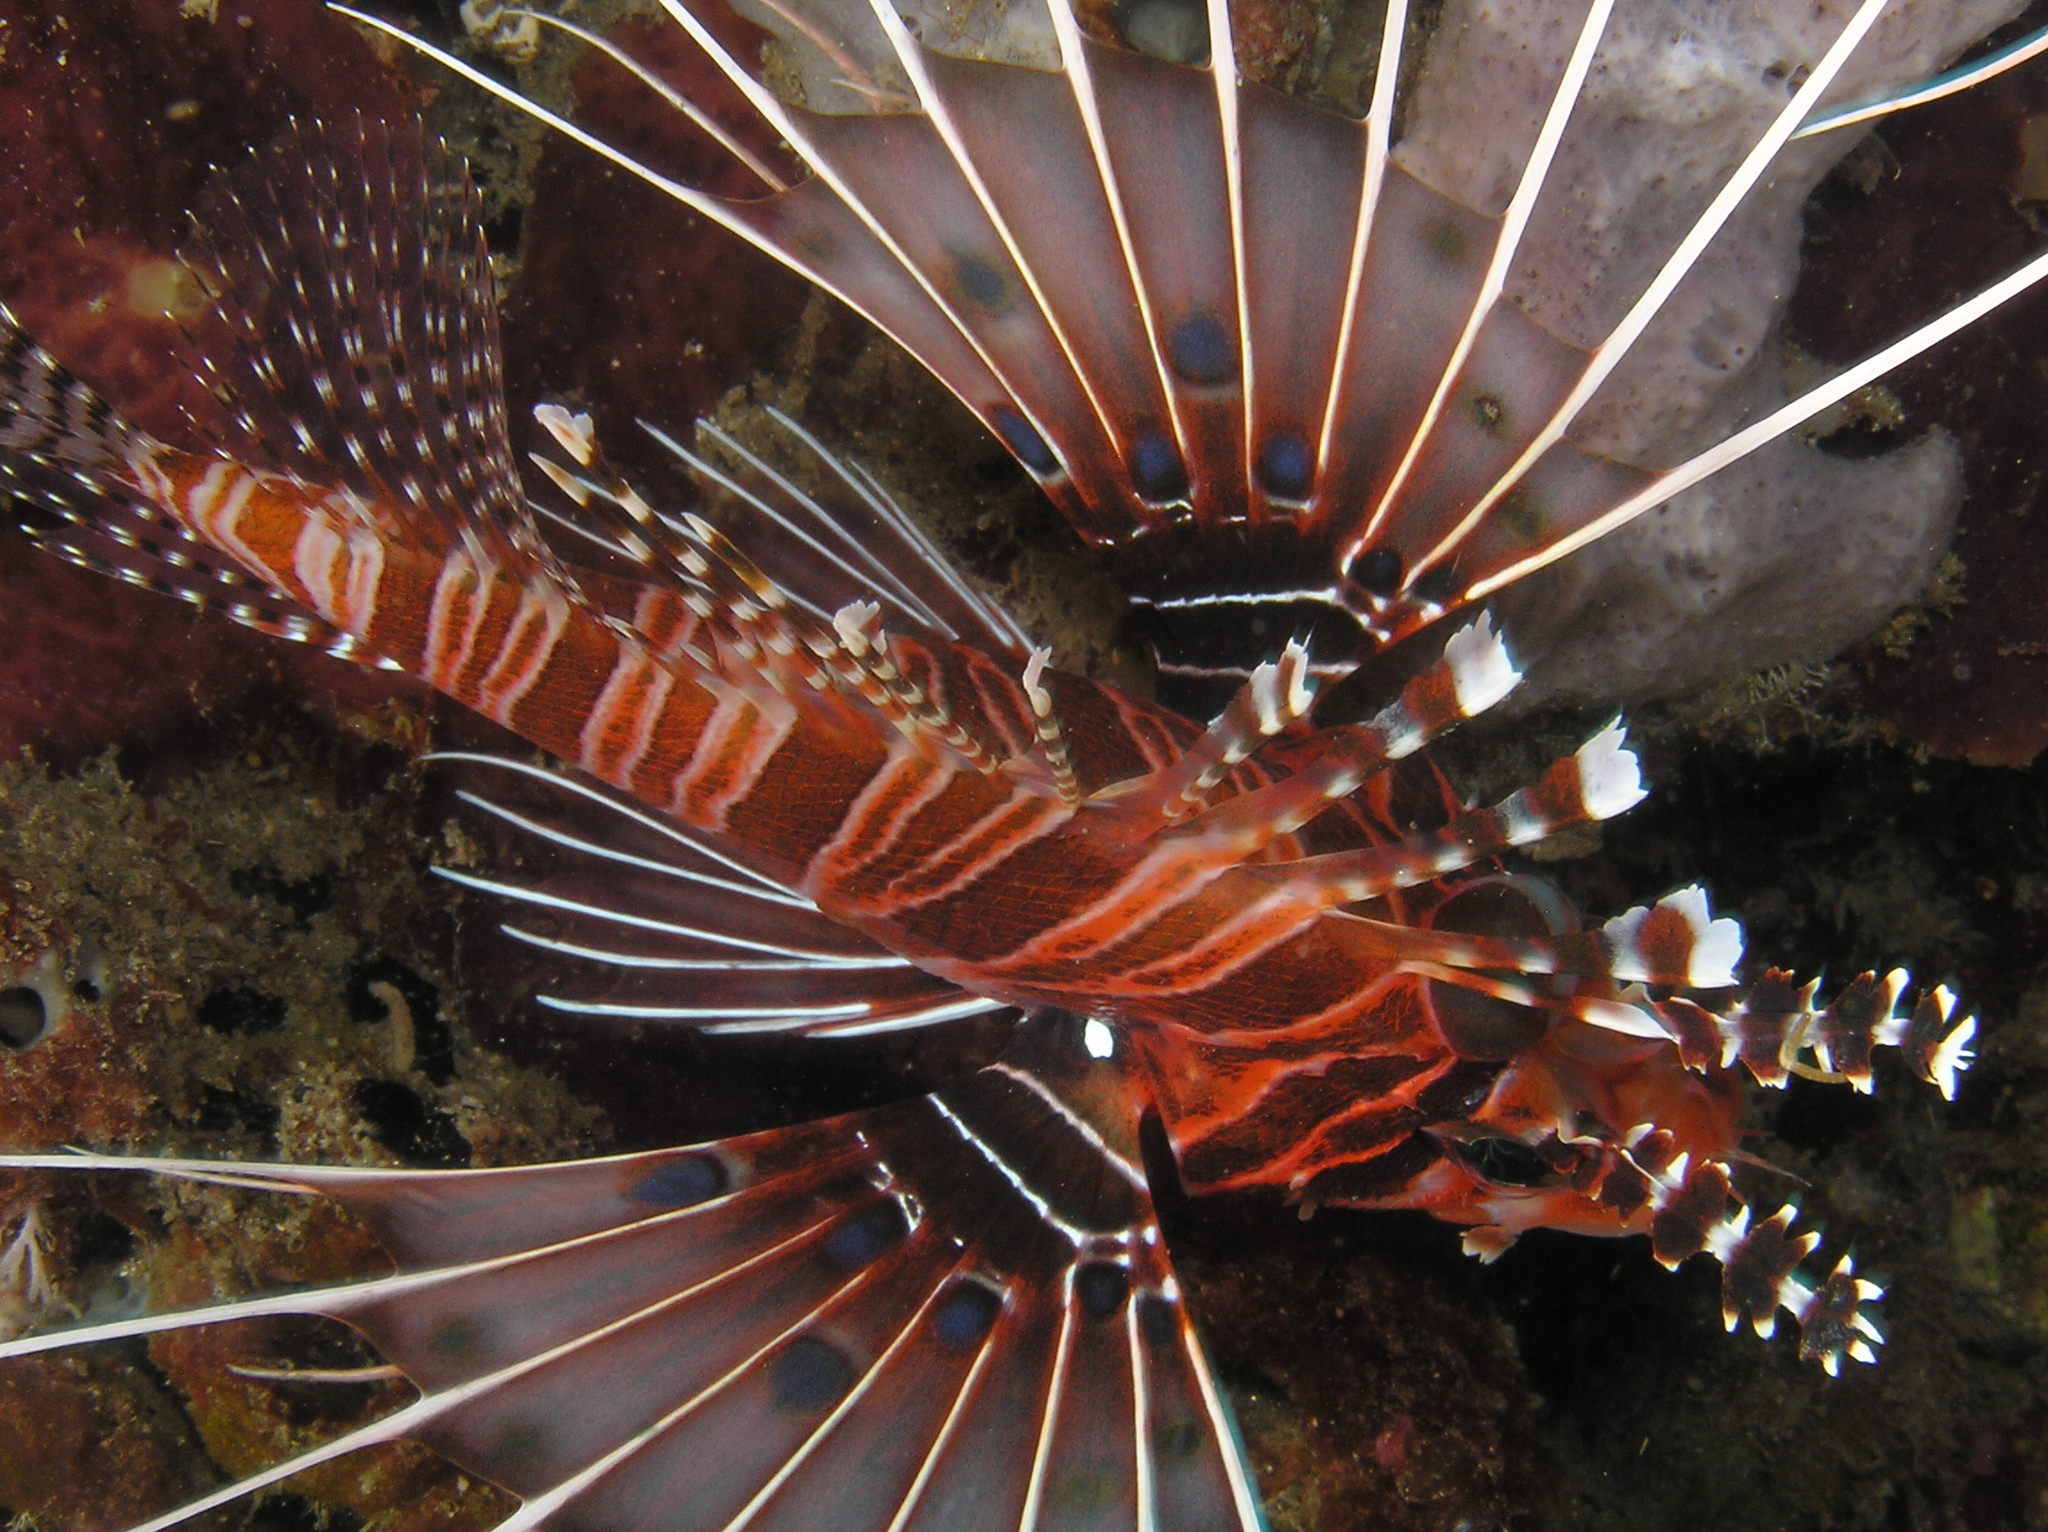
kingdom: Animalia
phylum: Chordata
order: Scorpaeniformes
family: Scorpaenidae
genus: Pterois
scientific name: Pterois antennata
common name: Spotfin lionfish
